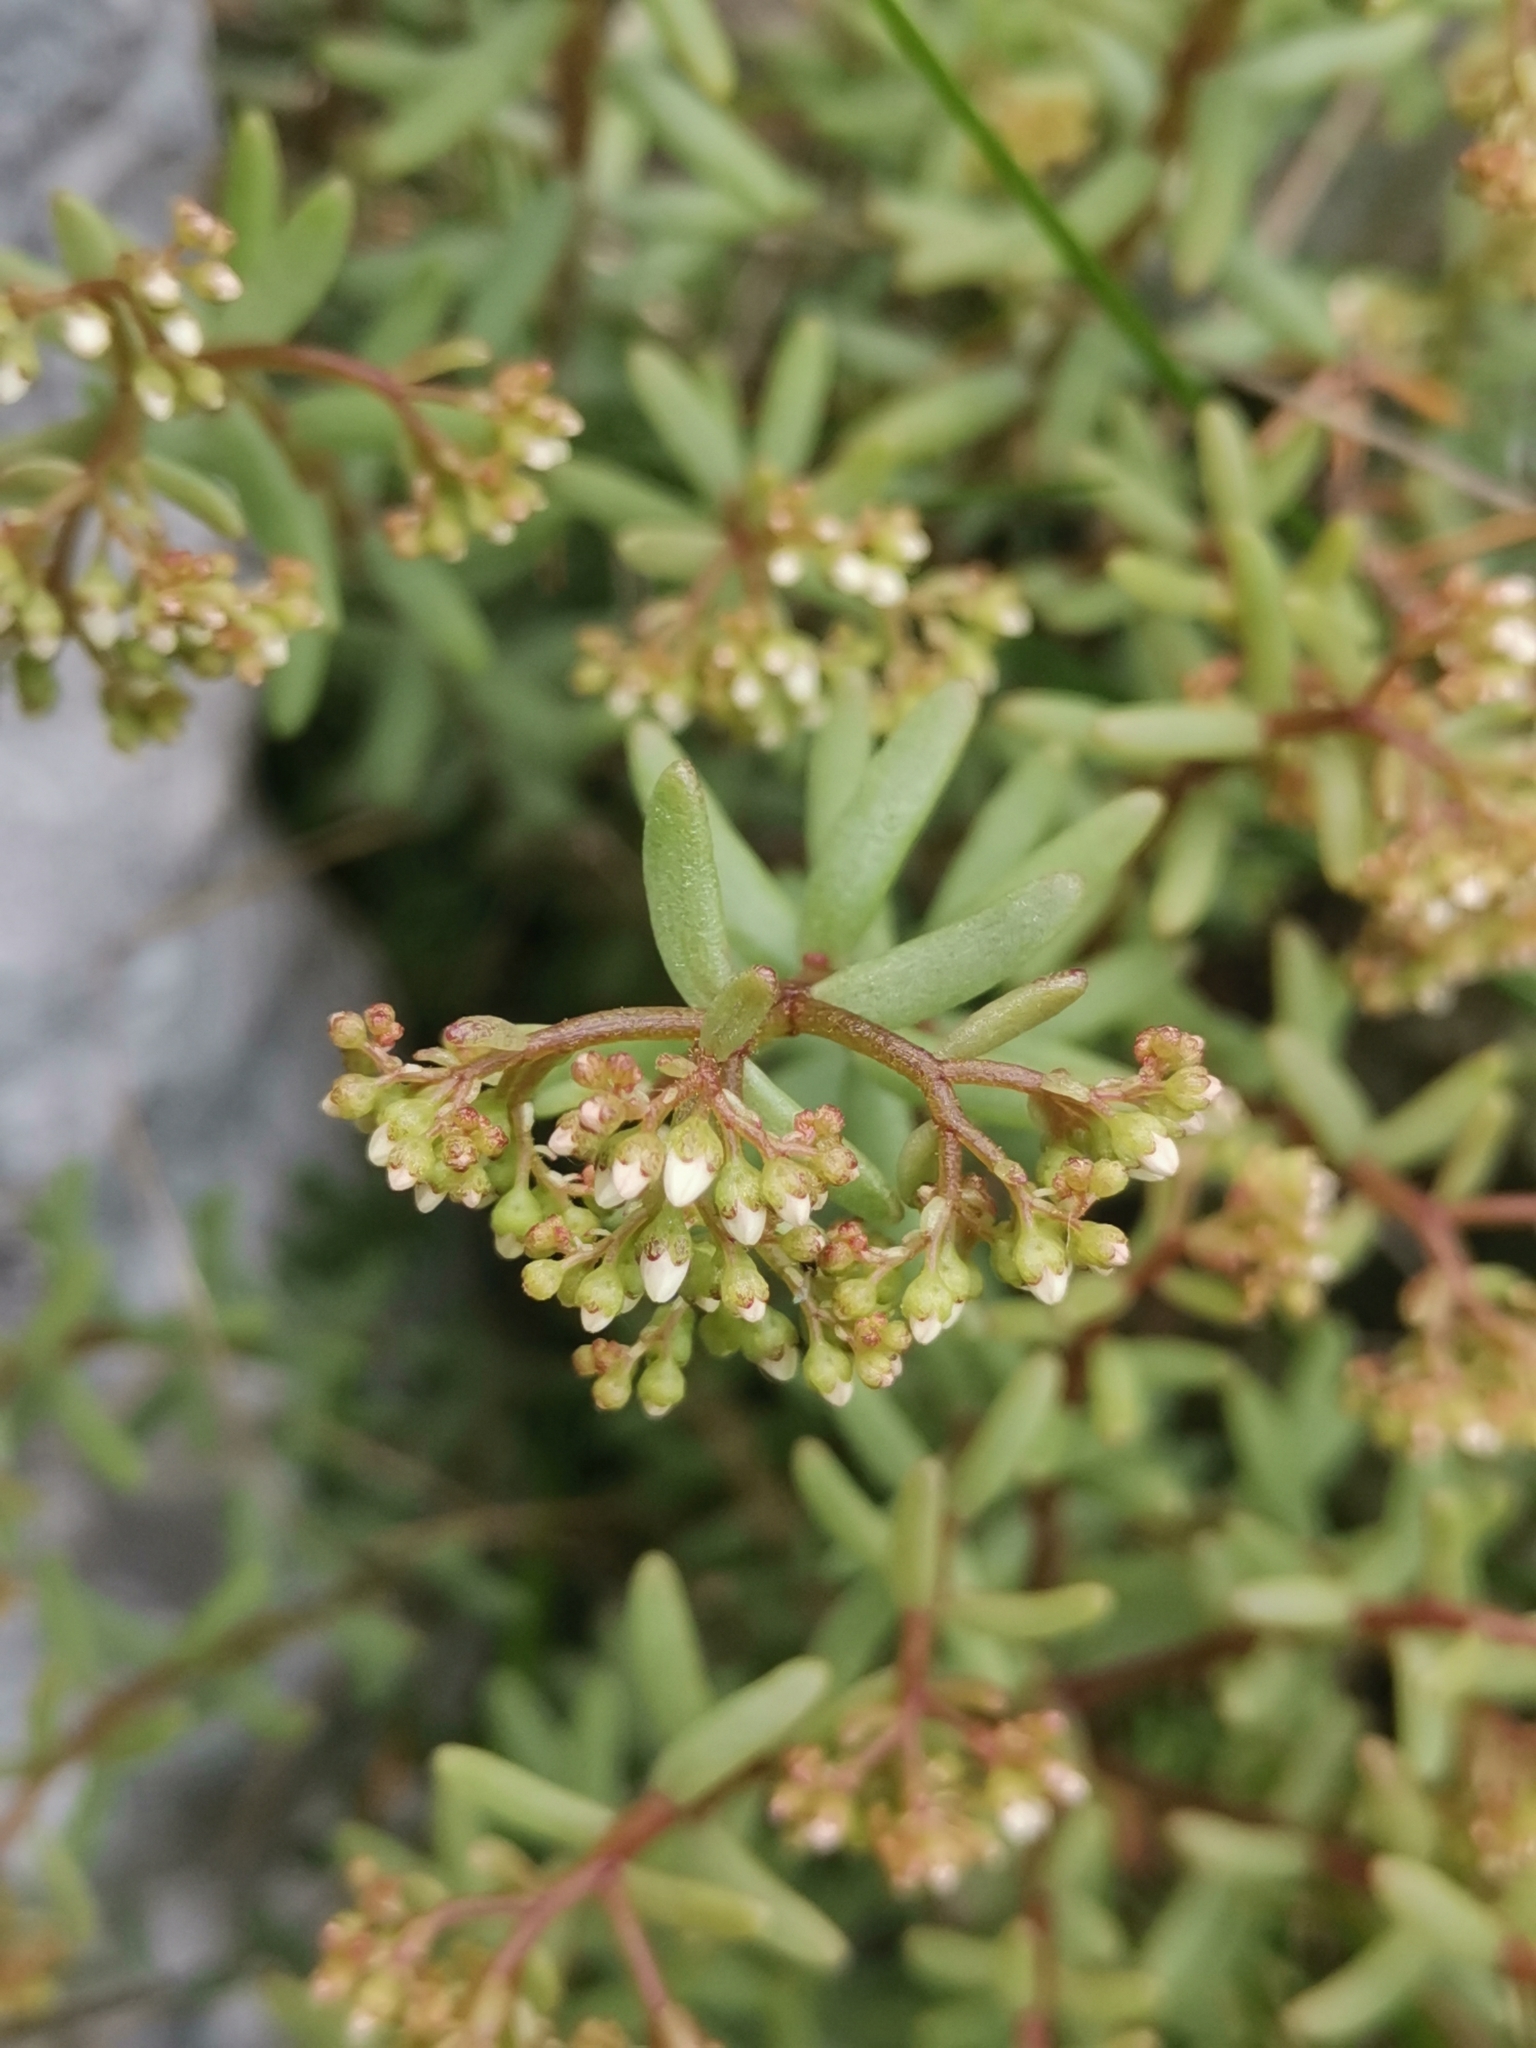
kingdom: Plantae
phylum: Tracheophyta
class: Magnoliopsida
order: Saxifragales
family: Crassulaceae
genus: Sedum
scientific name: Sedum album
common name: White stonecrop
